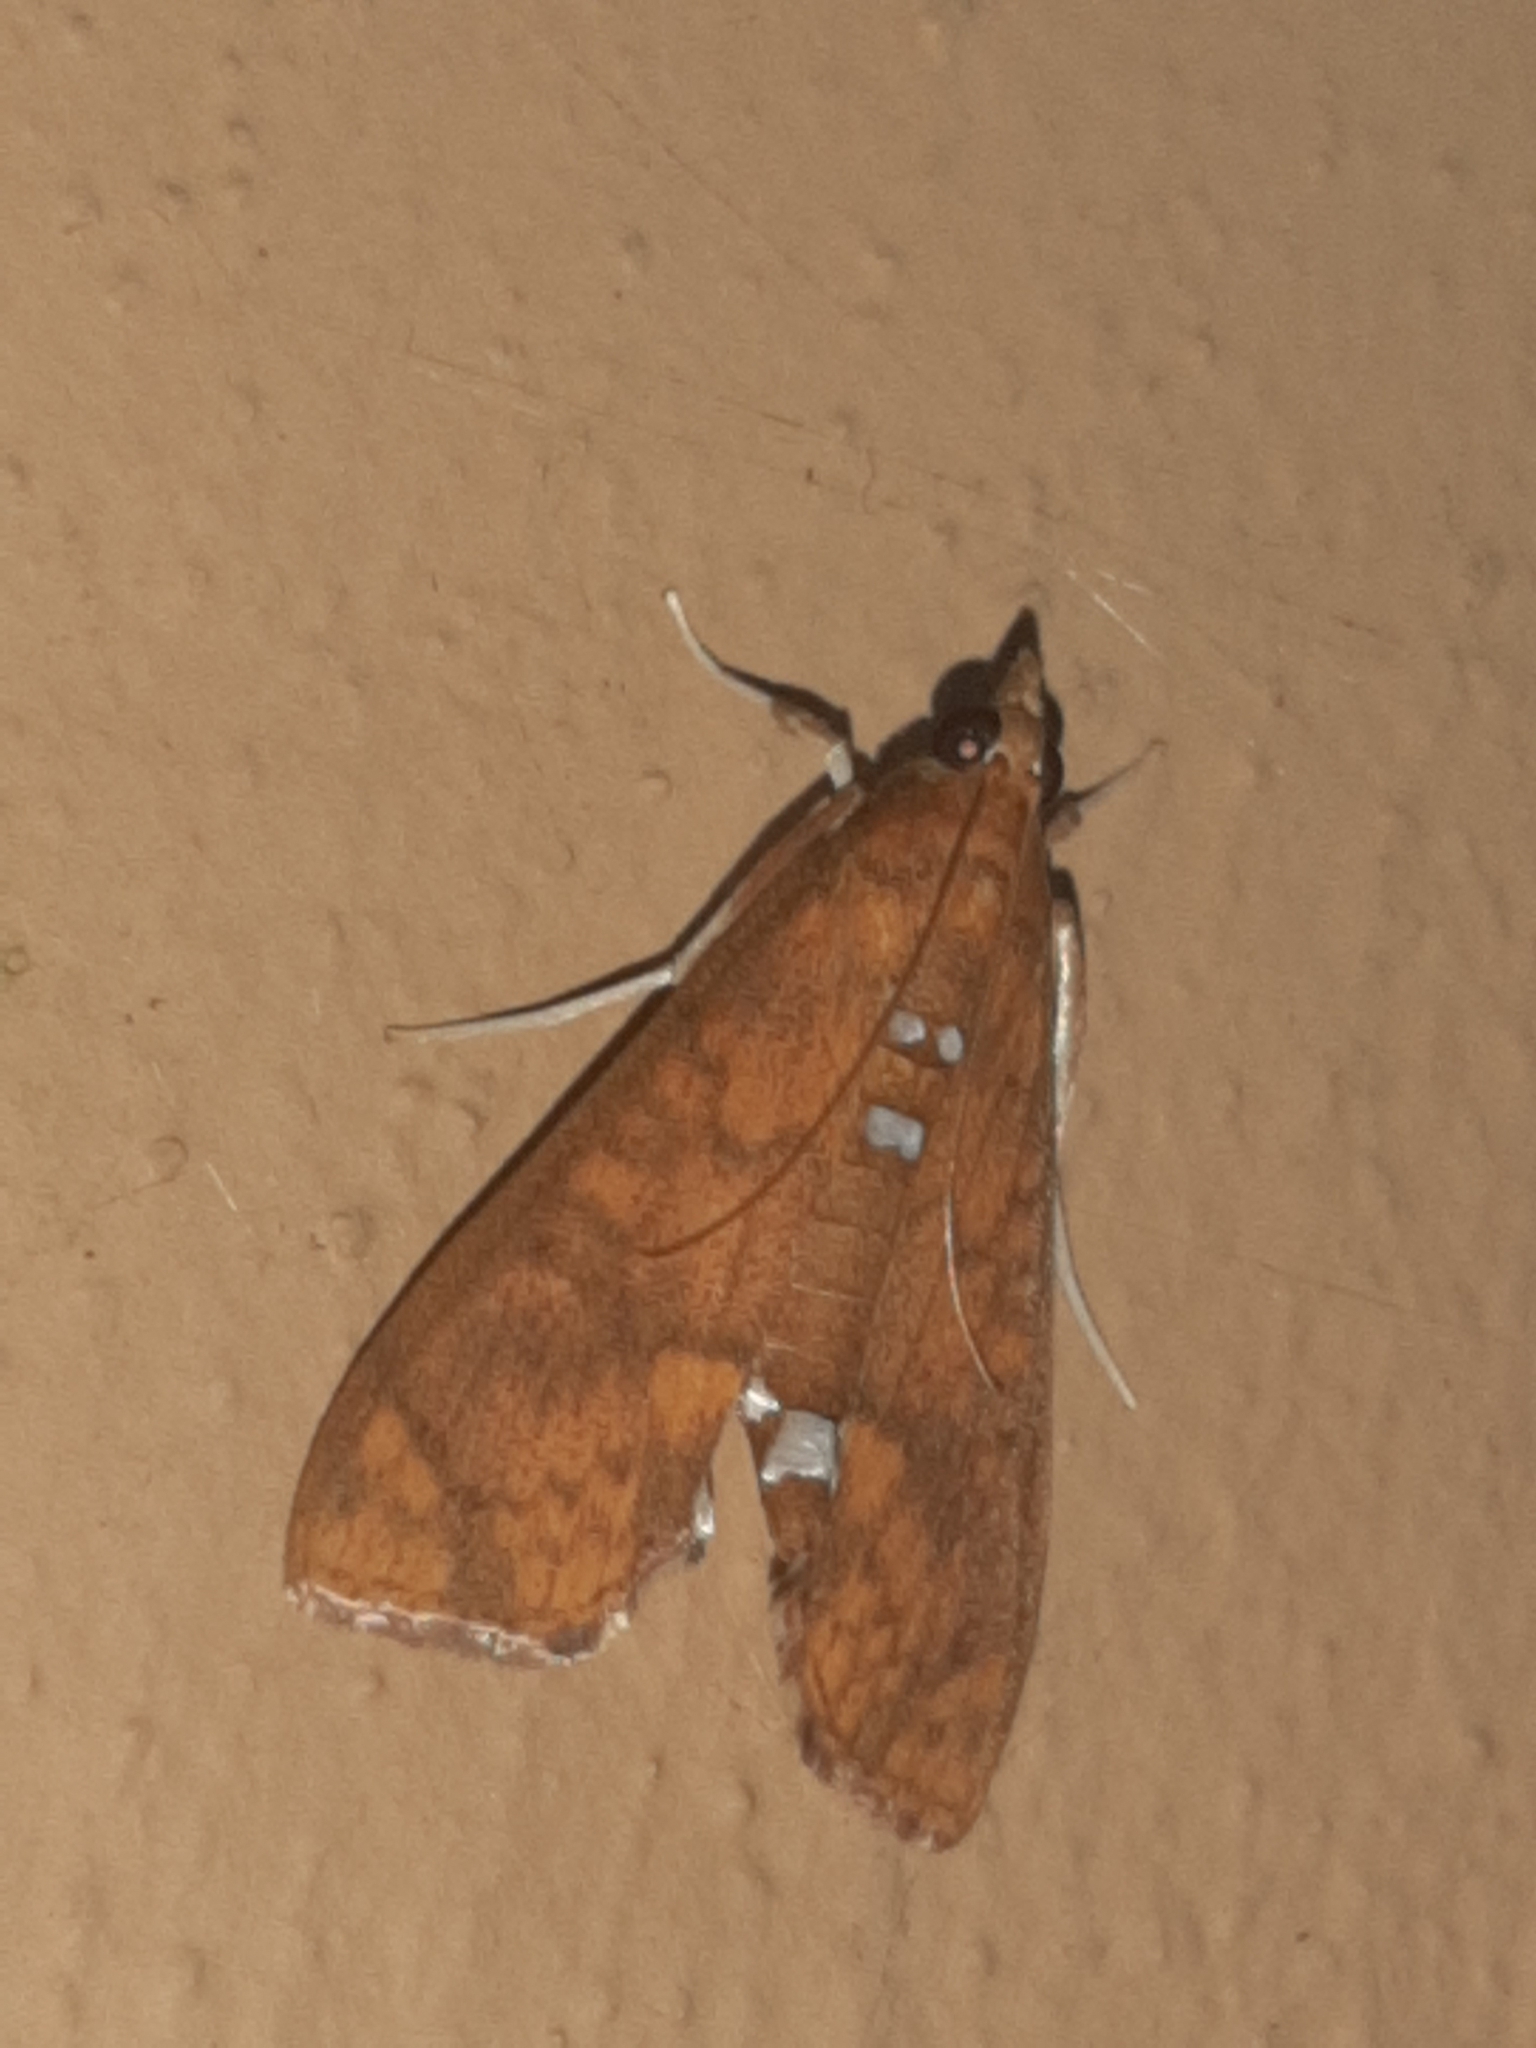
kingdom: Animalia
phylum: Arthropoda
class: Insecta
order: Lepidoptera
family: Crambidae
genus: Liopasia
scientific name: Liopasia ochracealis
